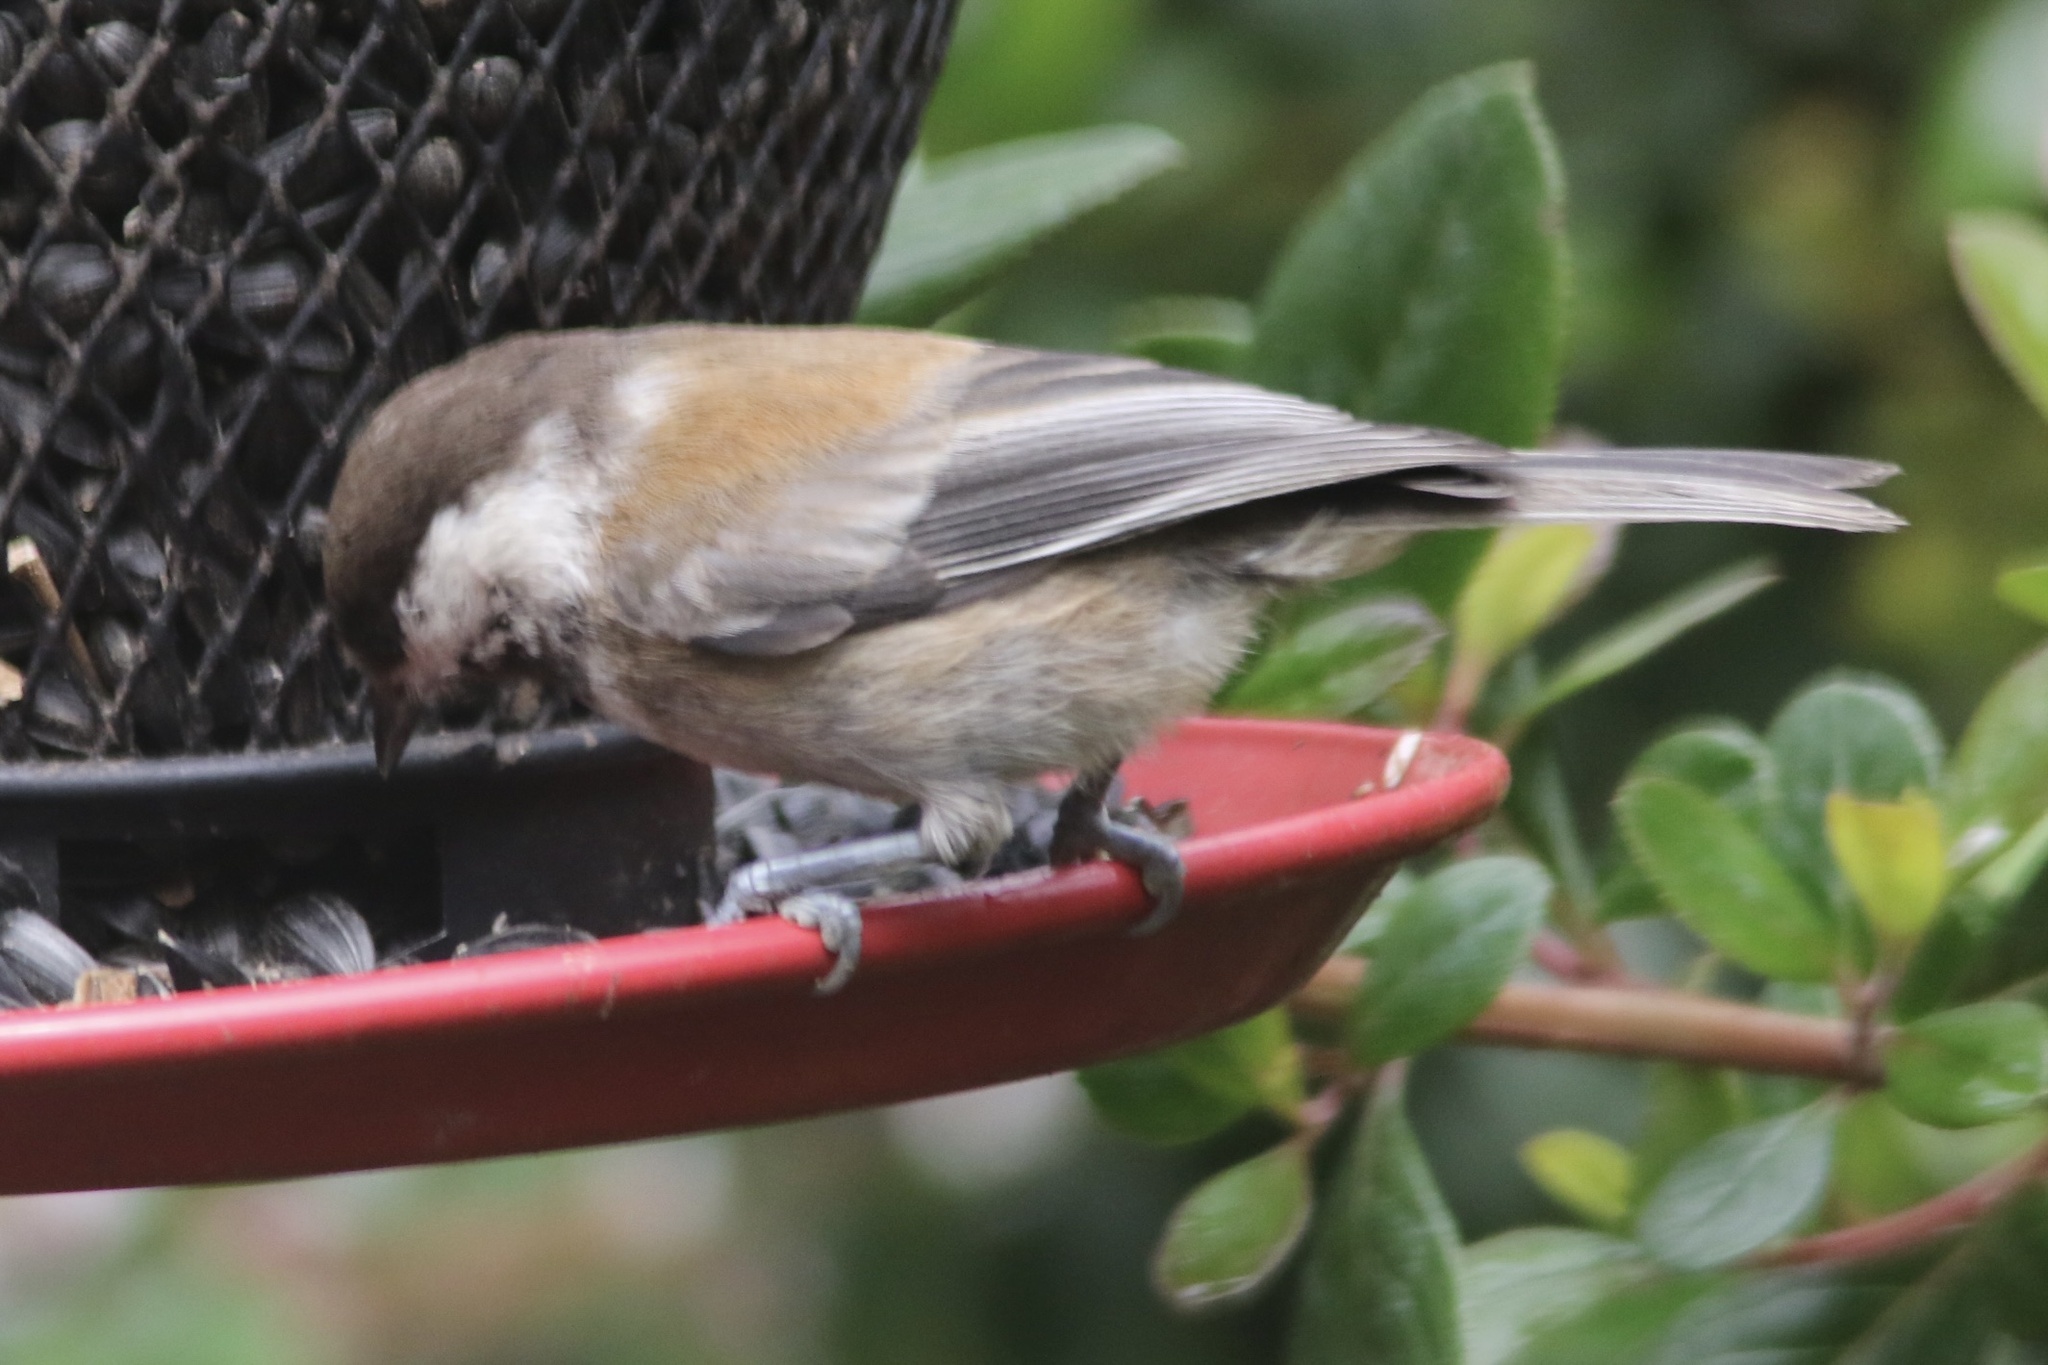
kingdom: Animalia
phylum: Chordata
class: Aves
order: Passeriformes
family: Paridae
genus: Poecile
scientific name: Poecile rufescens
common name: Chestnut-backed chickadee
